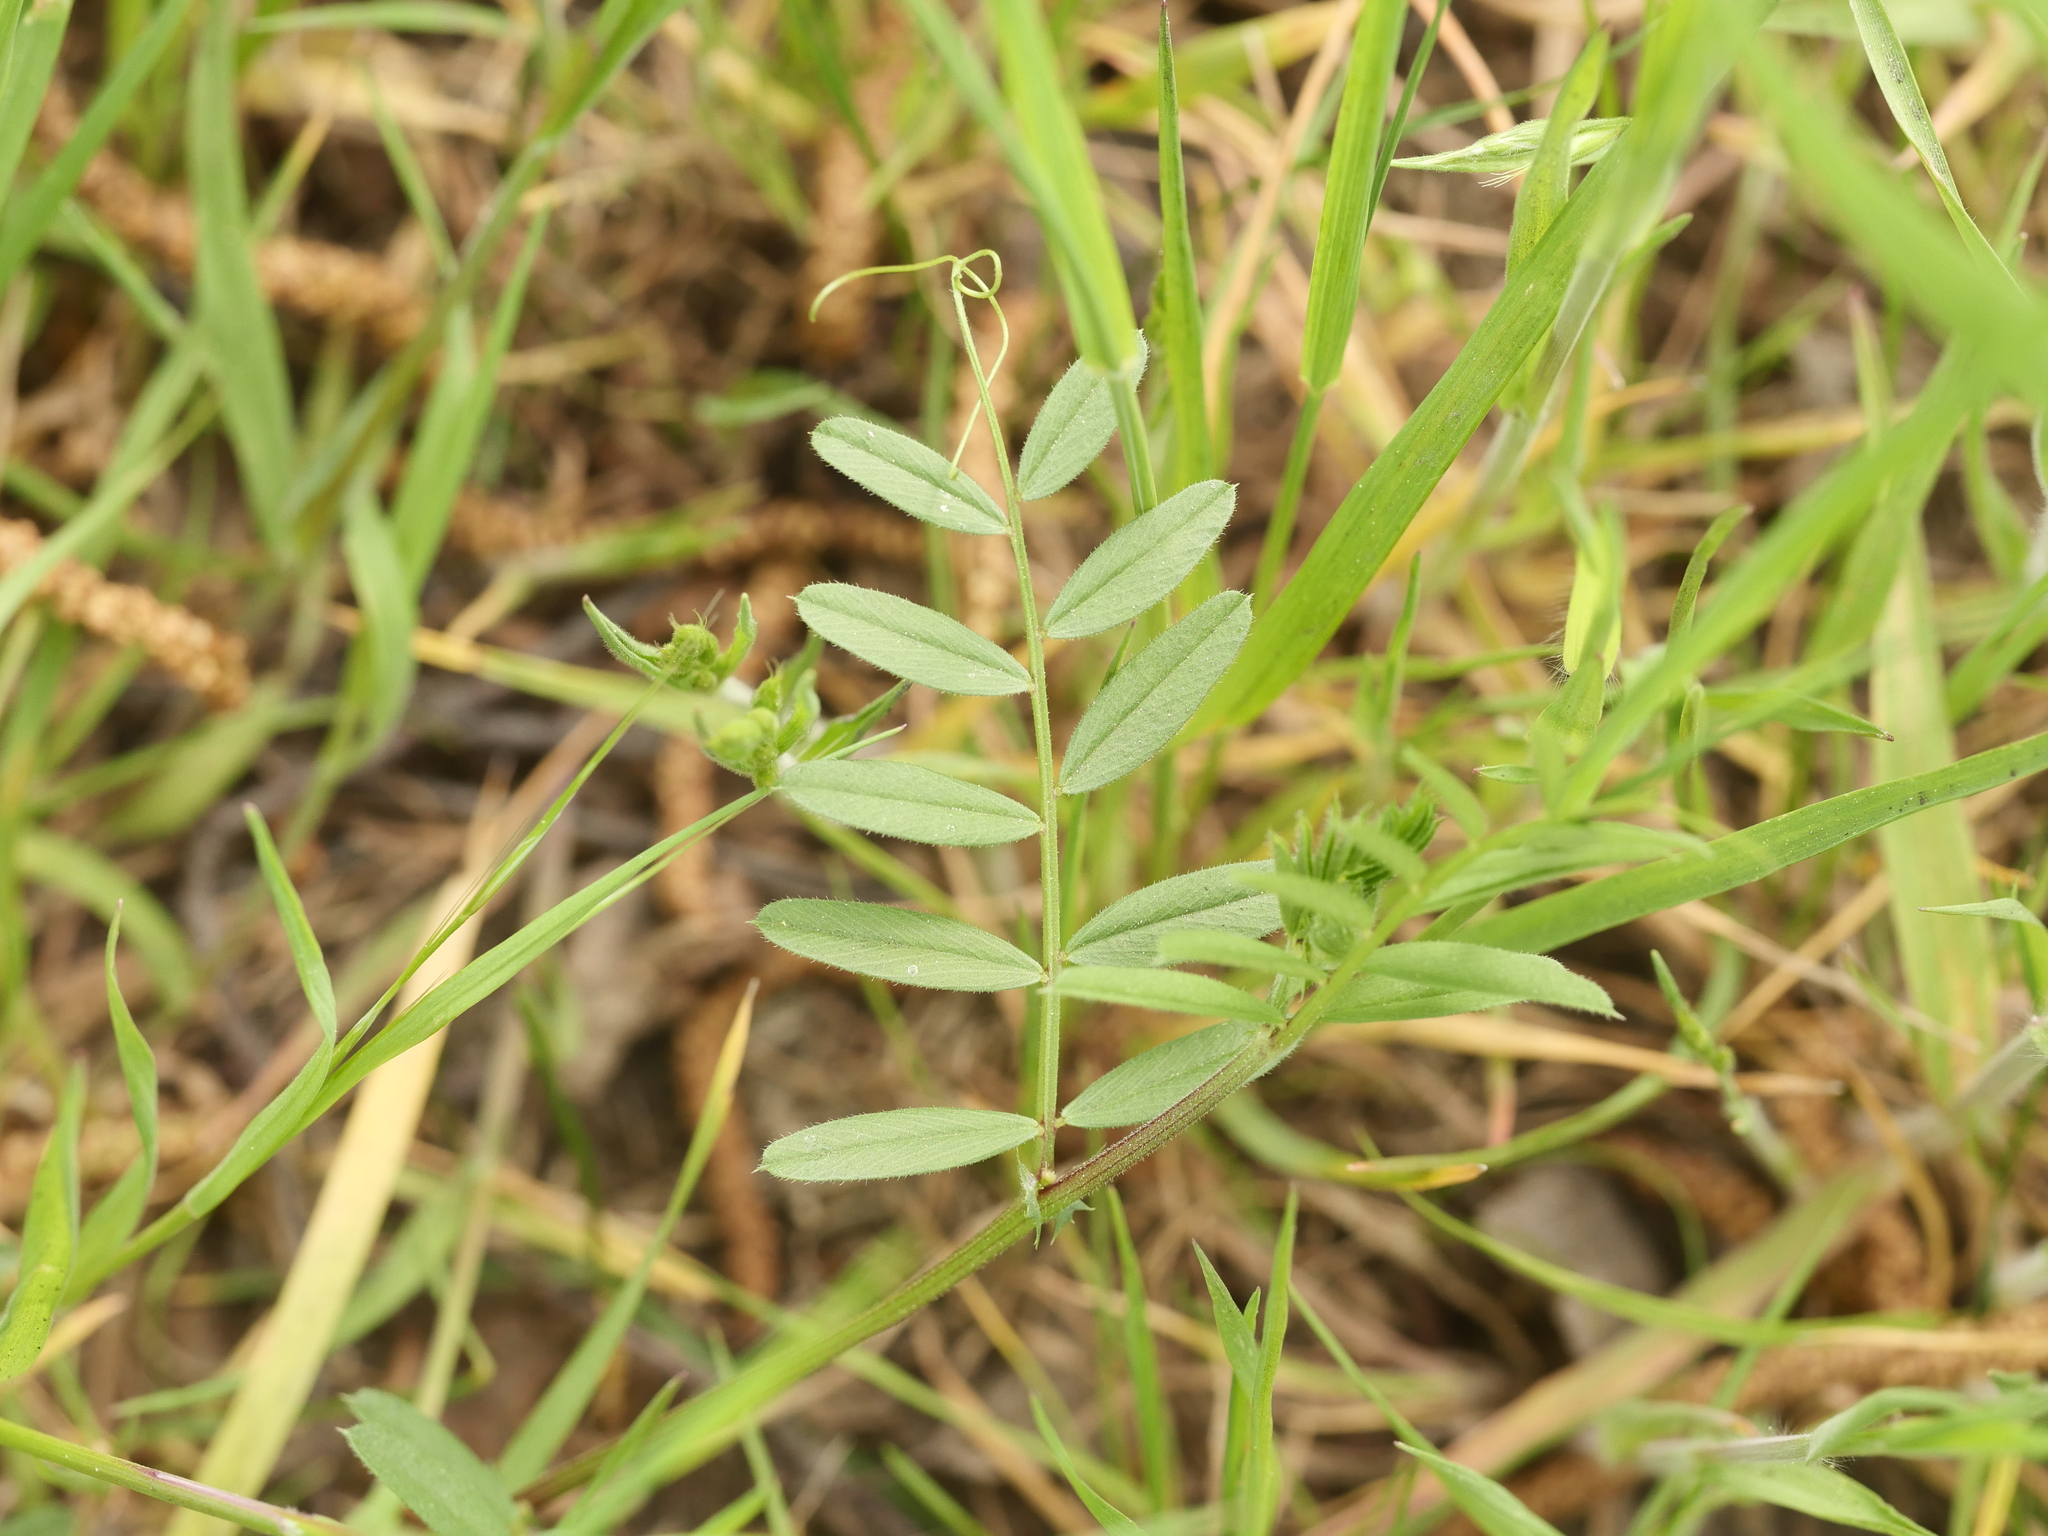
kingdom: Plantae
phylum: Tracheophyta
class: Magnoliopsida
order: Fabales
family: Fabaceae
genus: Vicia
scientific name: Vicia sativa
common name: Garden vetch
